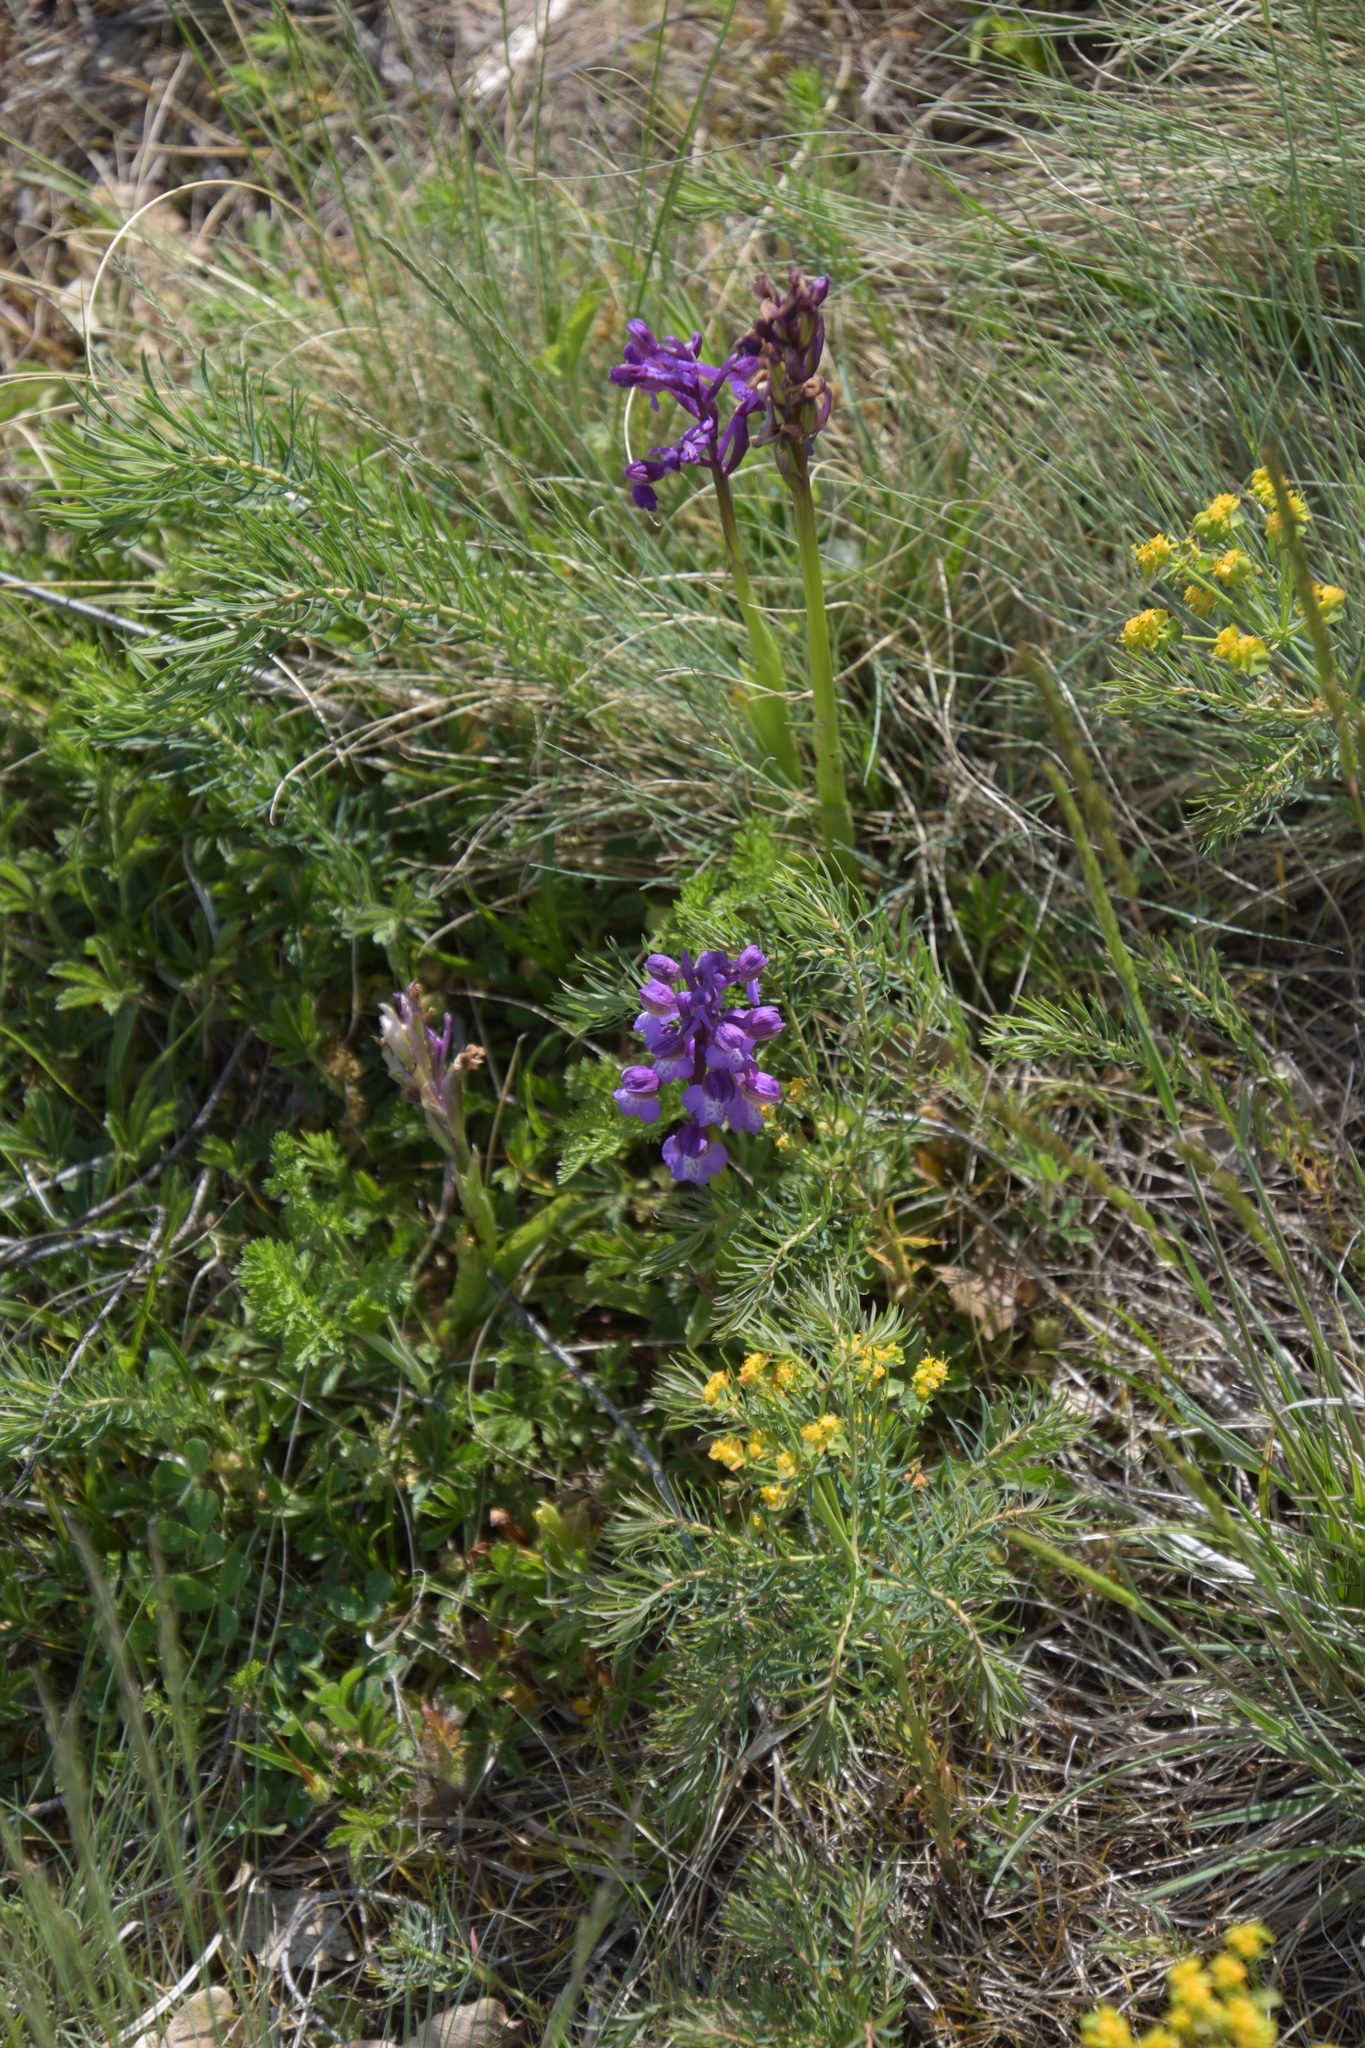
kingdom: Plantae
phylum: Tracheophyta
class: Liliopsida
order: Asparagales
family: Orchidaceae
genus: Anacamptis
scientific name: Anacamptis morio
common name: Green-winged orchid
